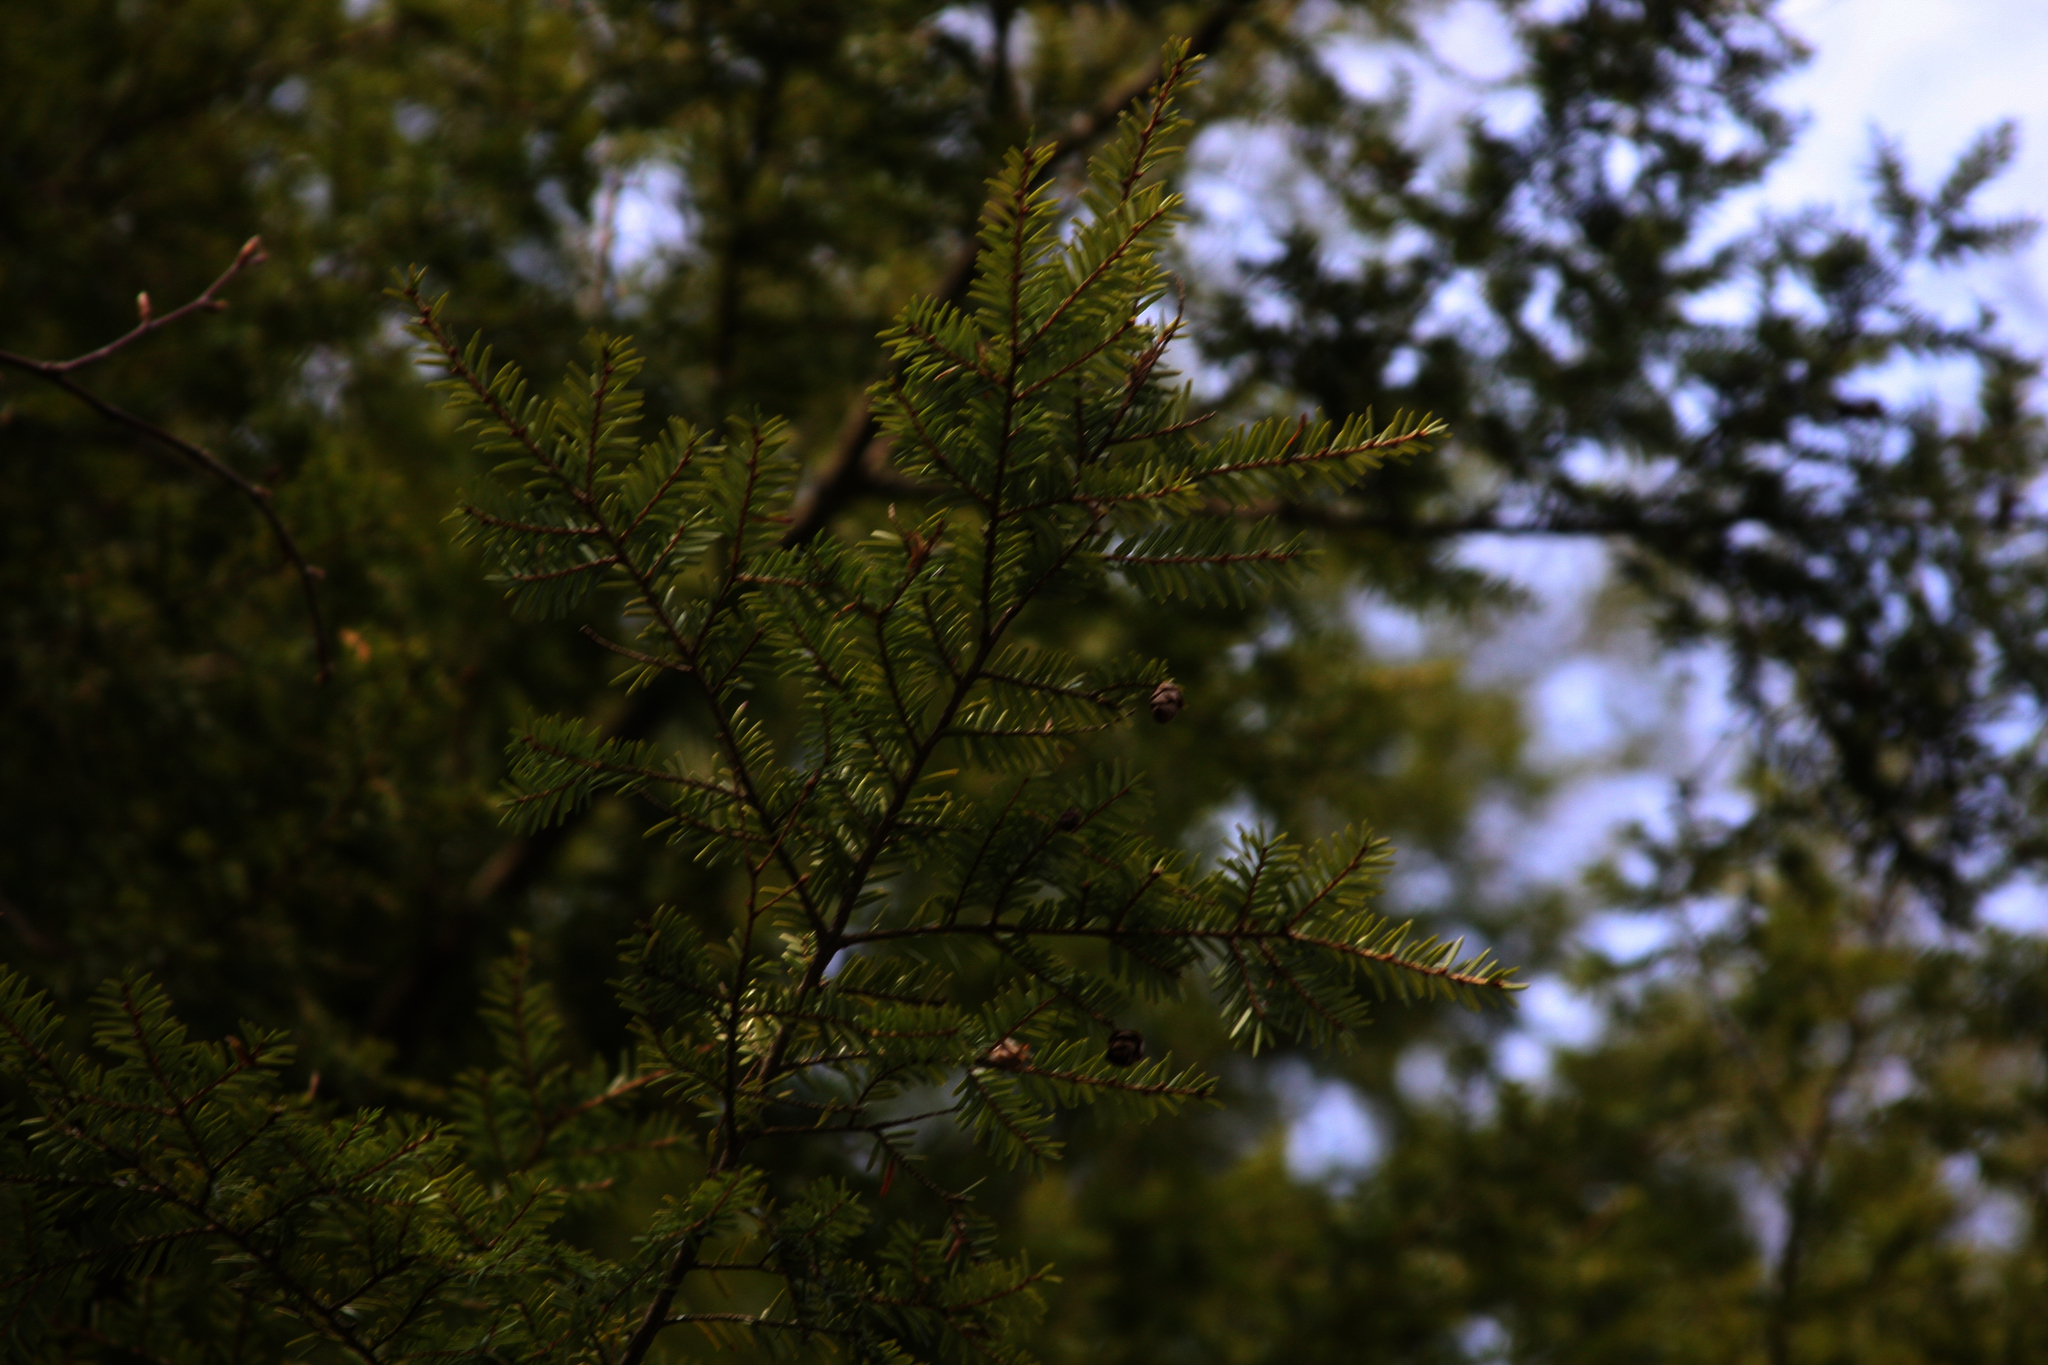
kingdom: Plantae
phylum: Tracheophyta
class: Pinopsida
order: Pinales
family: Pinaceae
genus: Tsuga
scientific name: Tsuga canadensis
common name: Eastern hemlock
